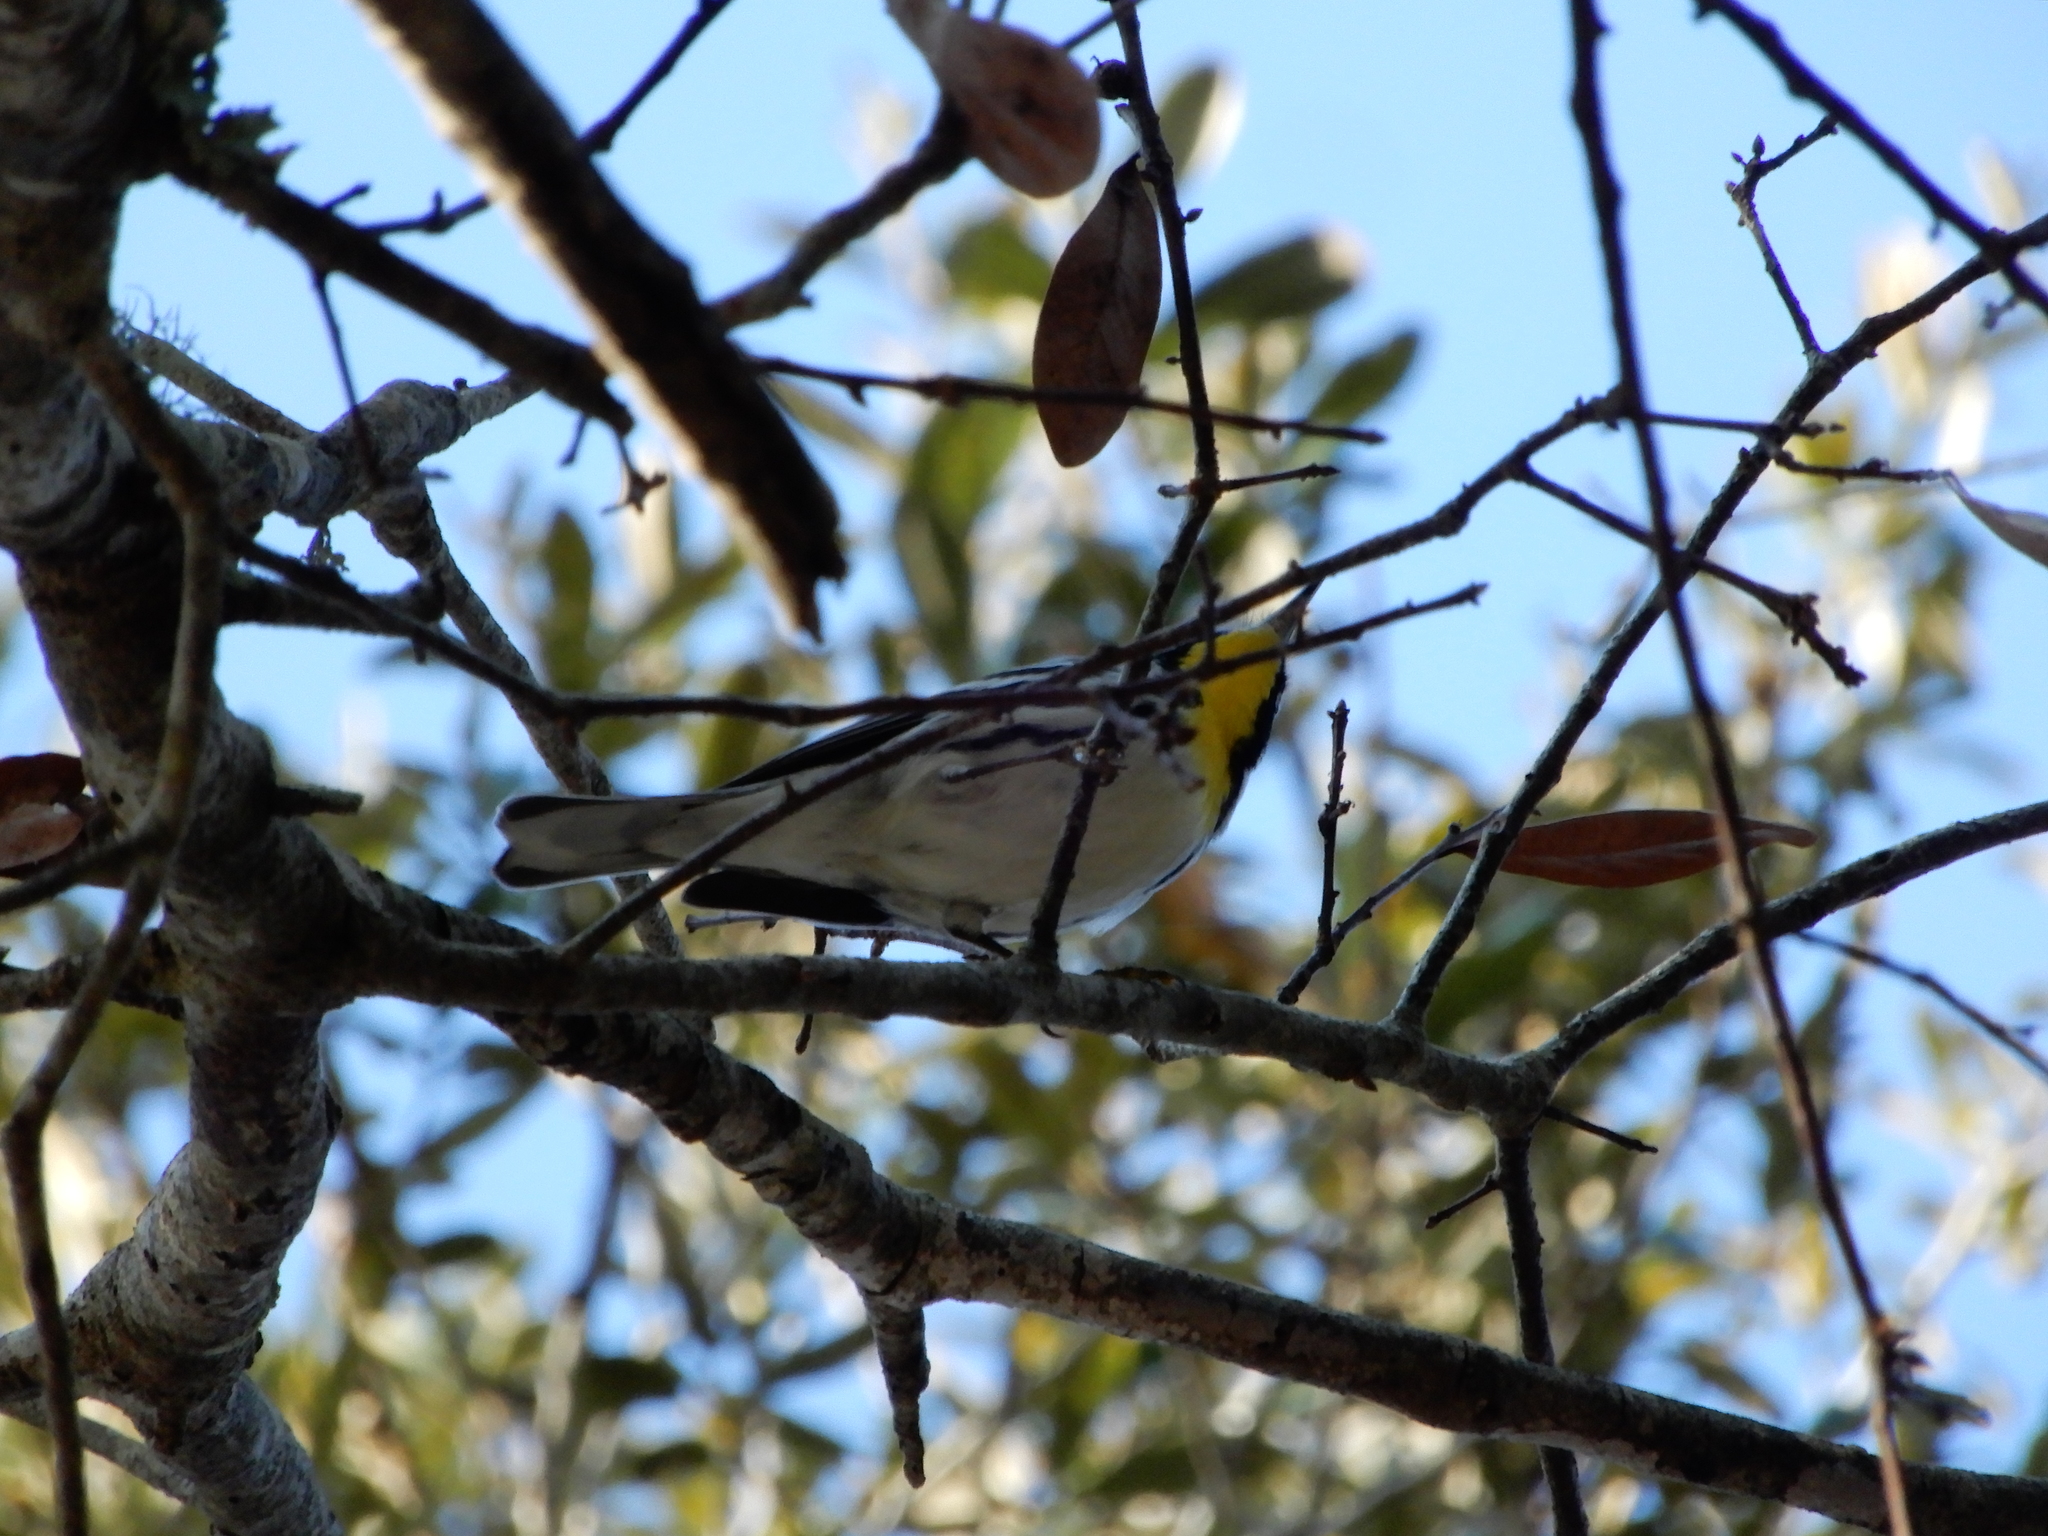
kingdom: Animalia
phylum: Chordata
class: Aves
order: Passeriformes
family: Parulidae
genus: Setophaga
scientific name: Setophaga dominica
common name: Yellow-throated warbler
